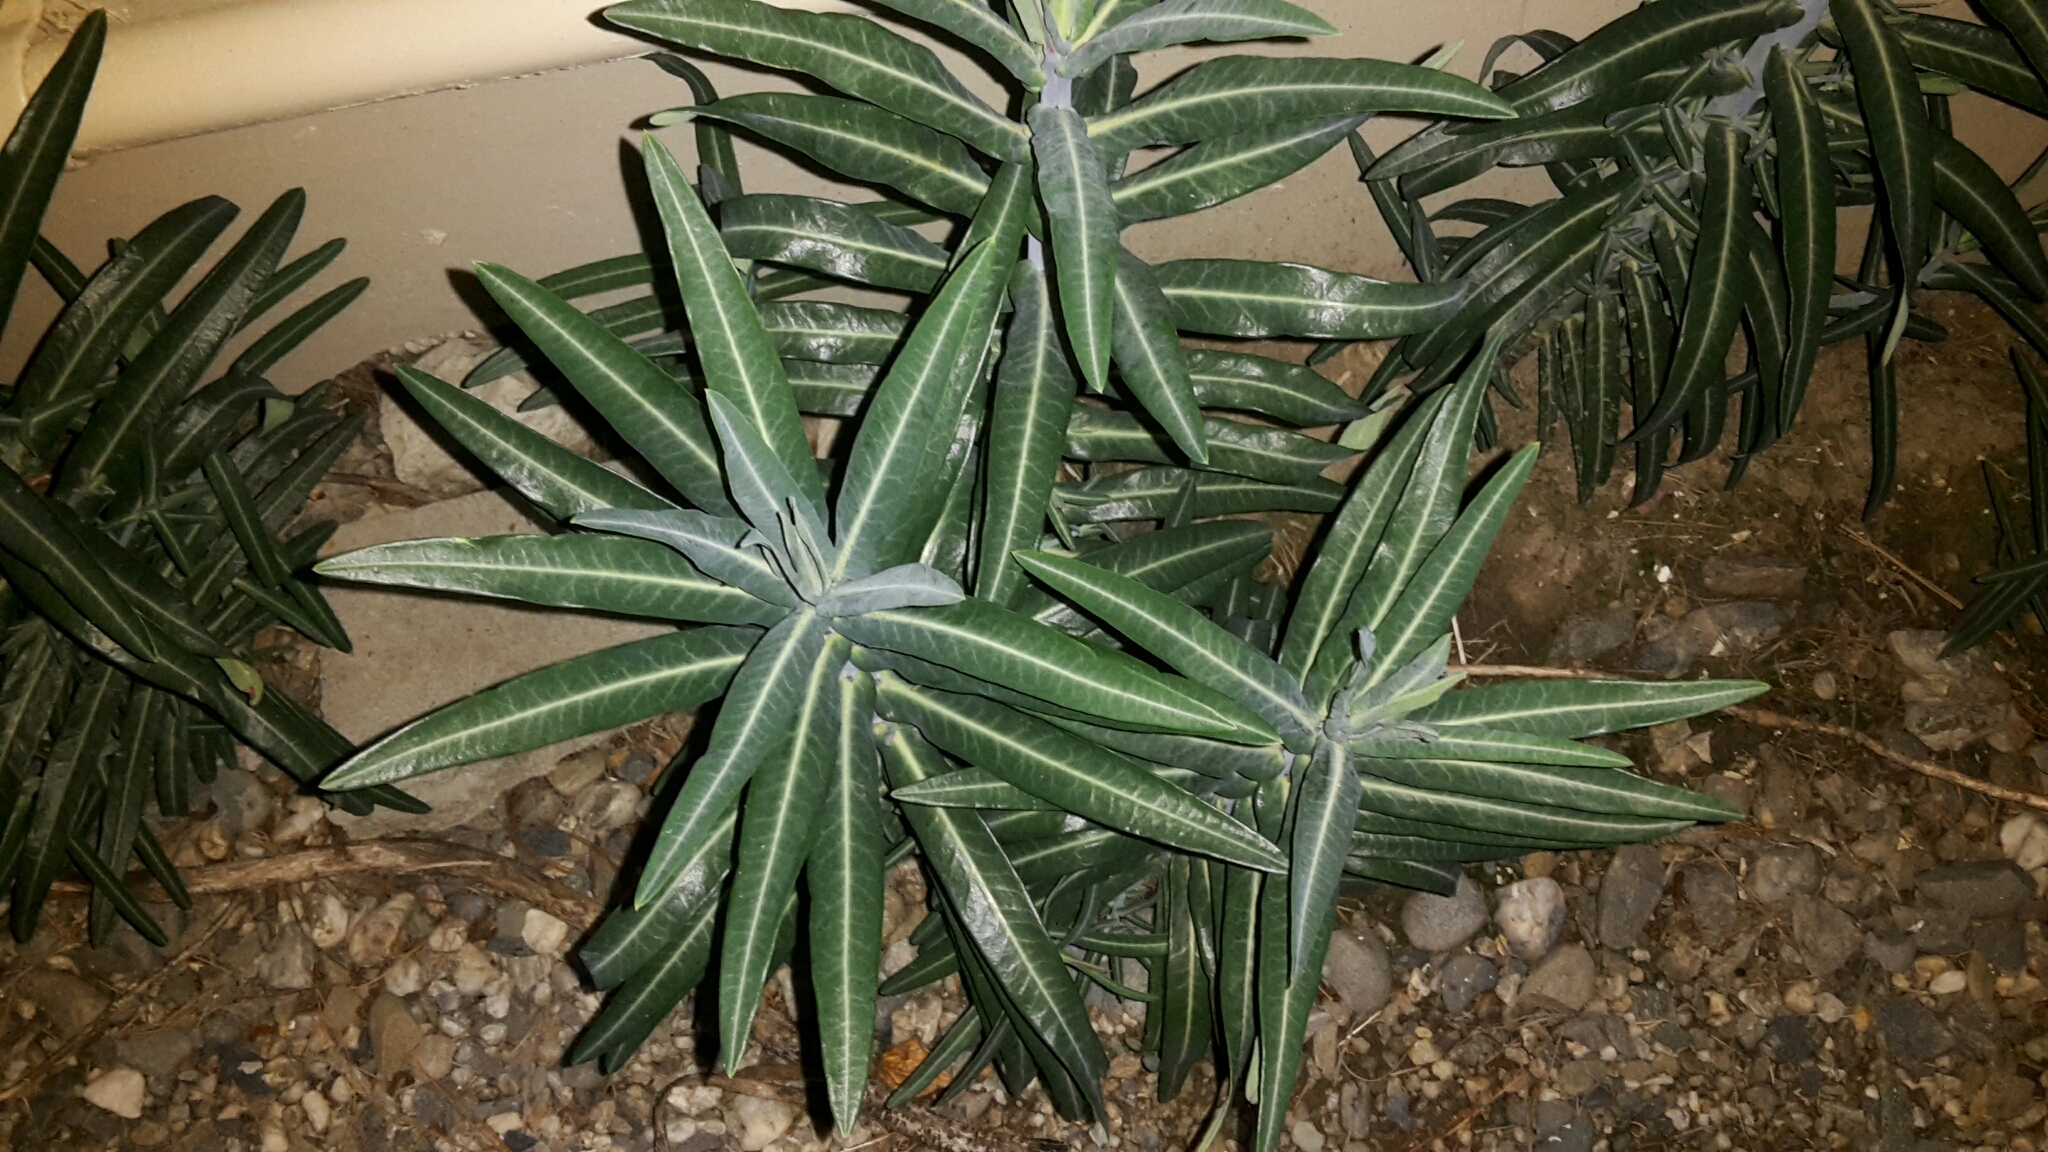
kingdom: Plantae
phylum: Tracheophyta
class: Magnoliopsida
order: Malpighiales
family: Euphorbiaceae
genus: Euphorbia
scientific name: Euphorbia lathyris
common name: Caper spurge
